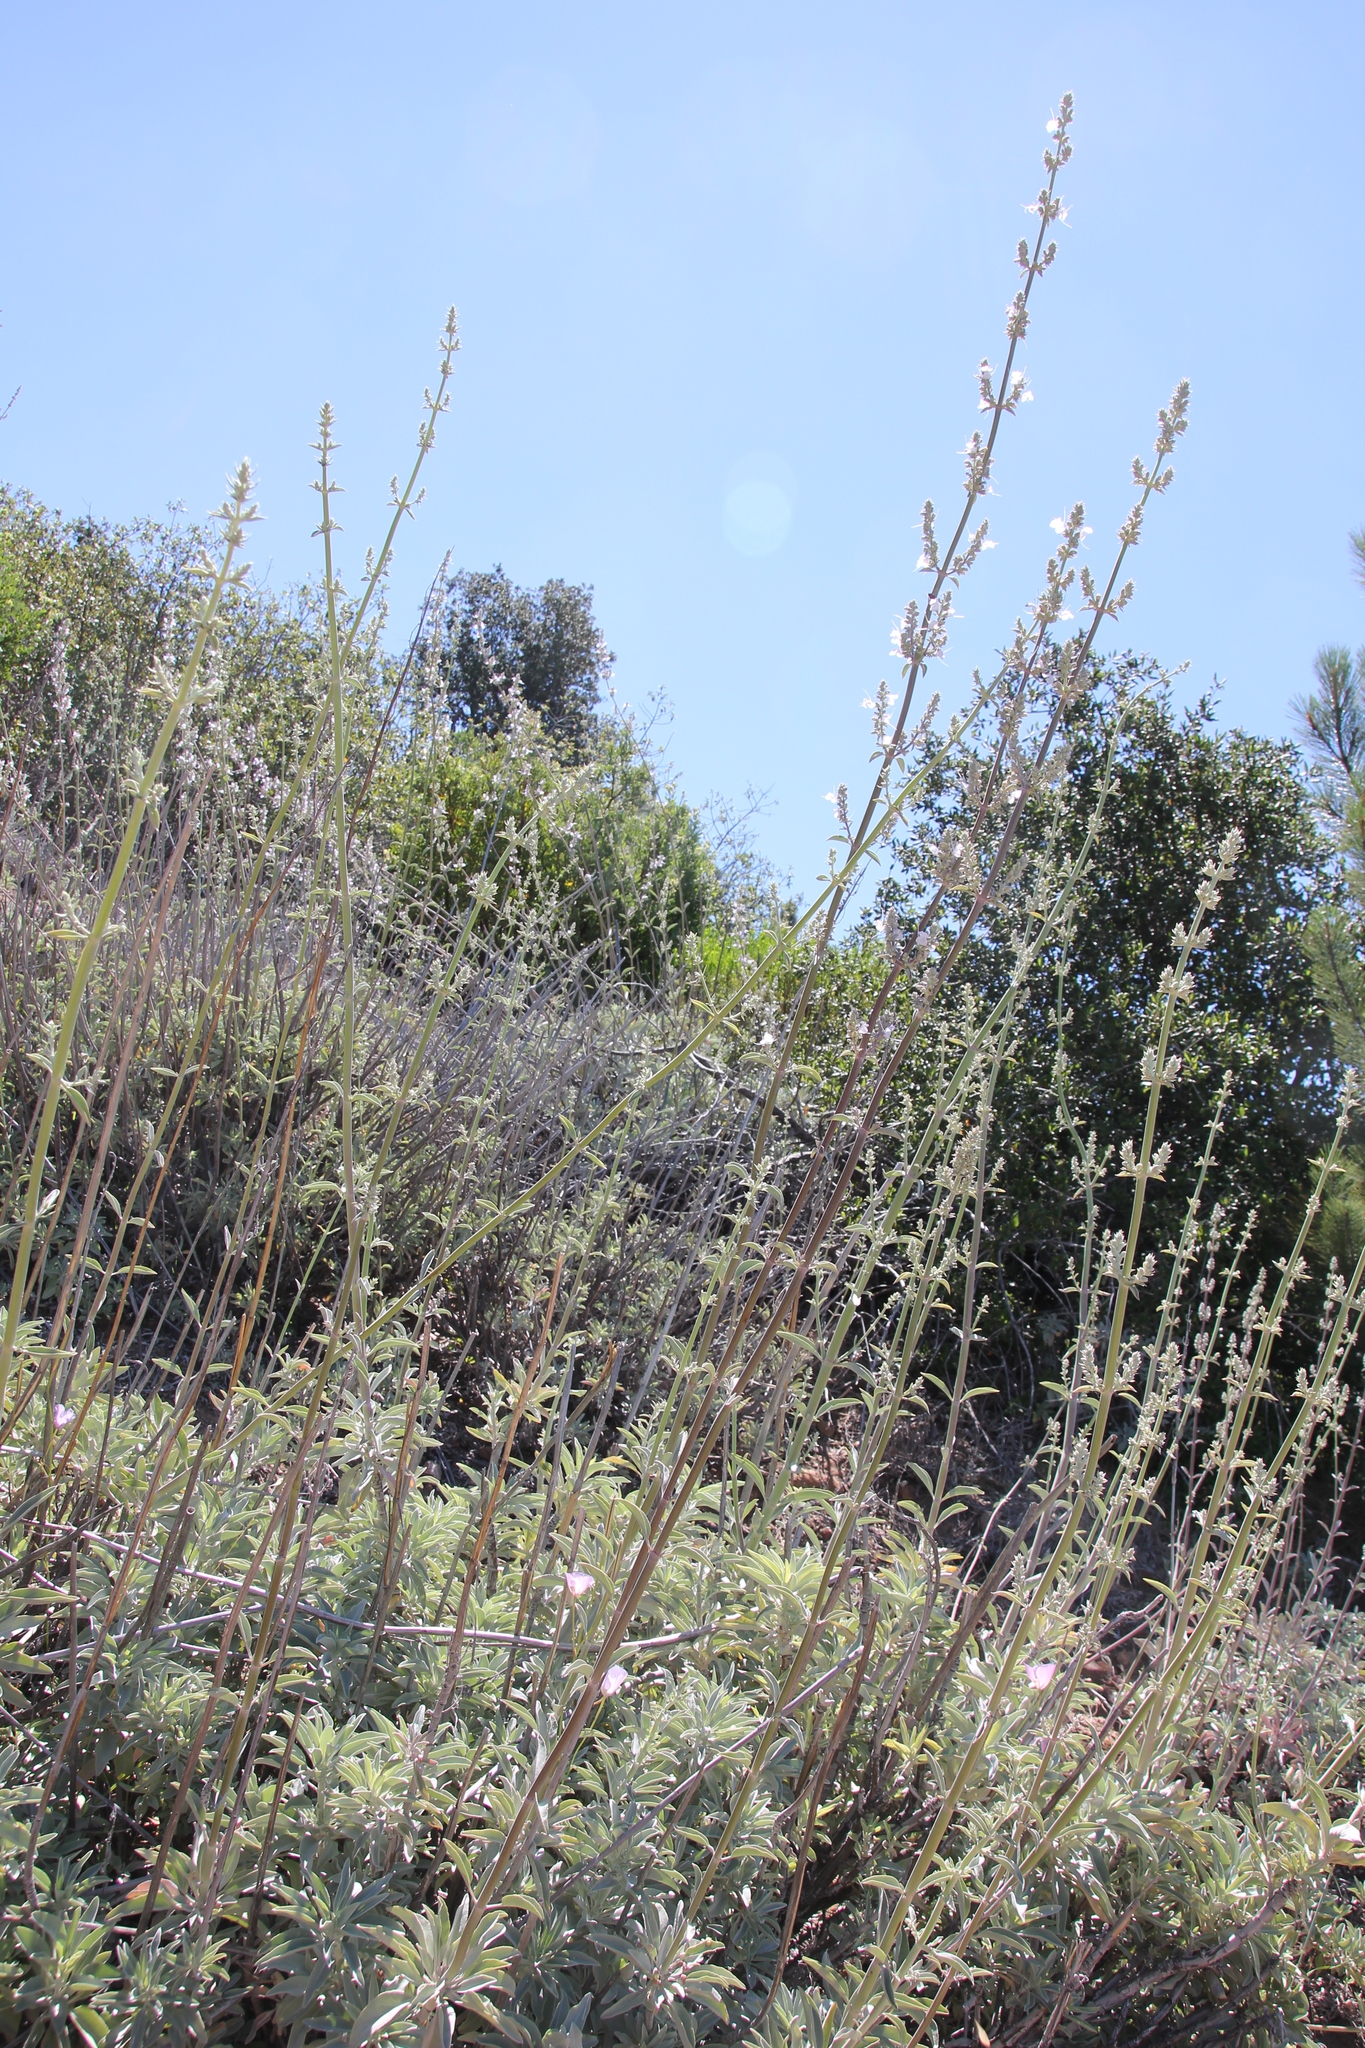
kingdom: Plantae
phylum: Tracheophyta
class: Magnoliopsida
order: Lamiales
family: Lamiaceae
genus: Salvia
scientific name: Salvia apiana
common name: White sage
